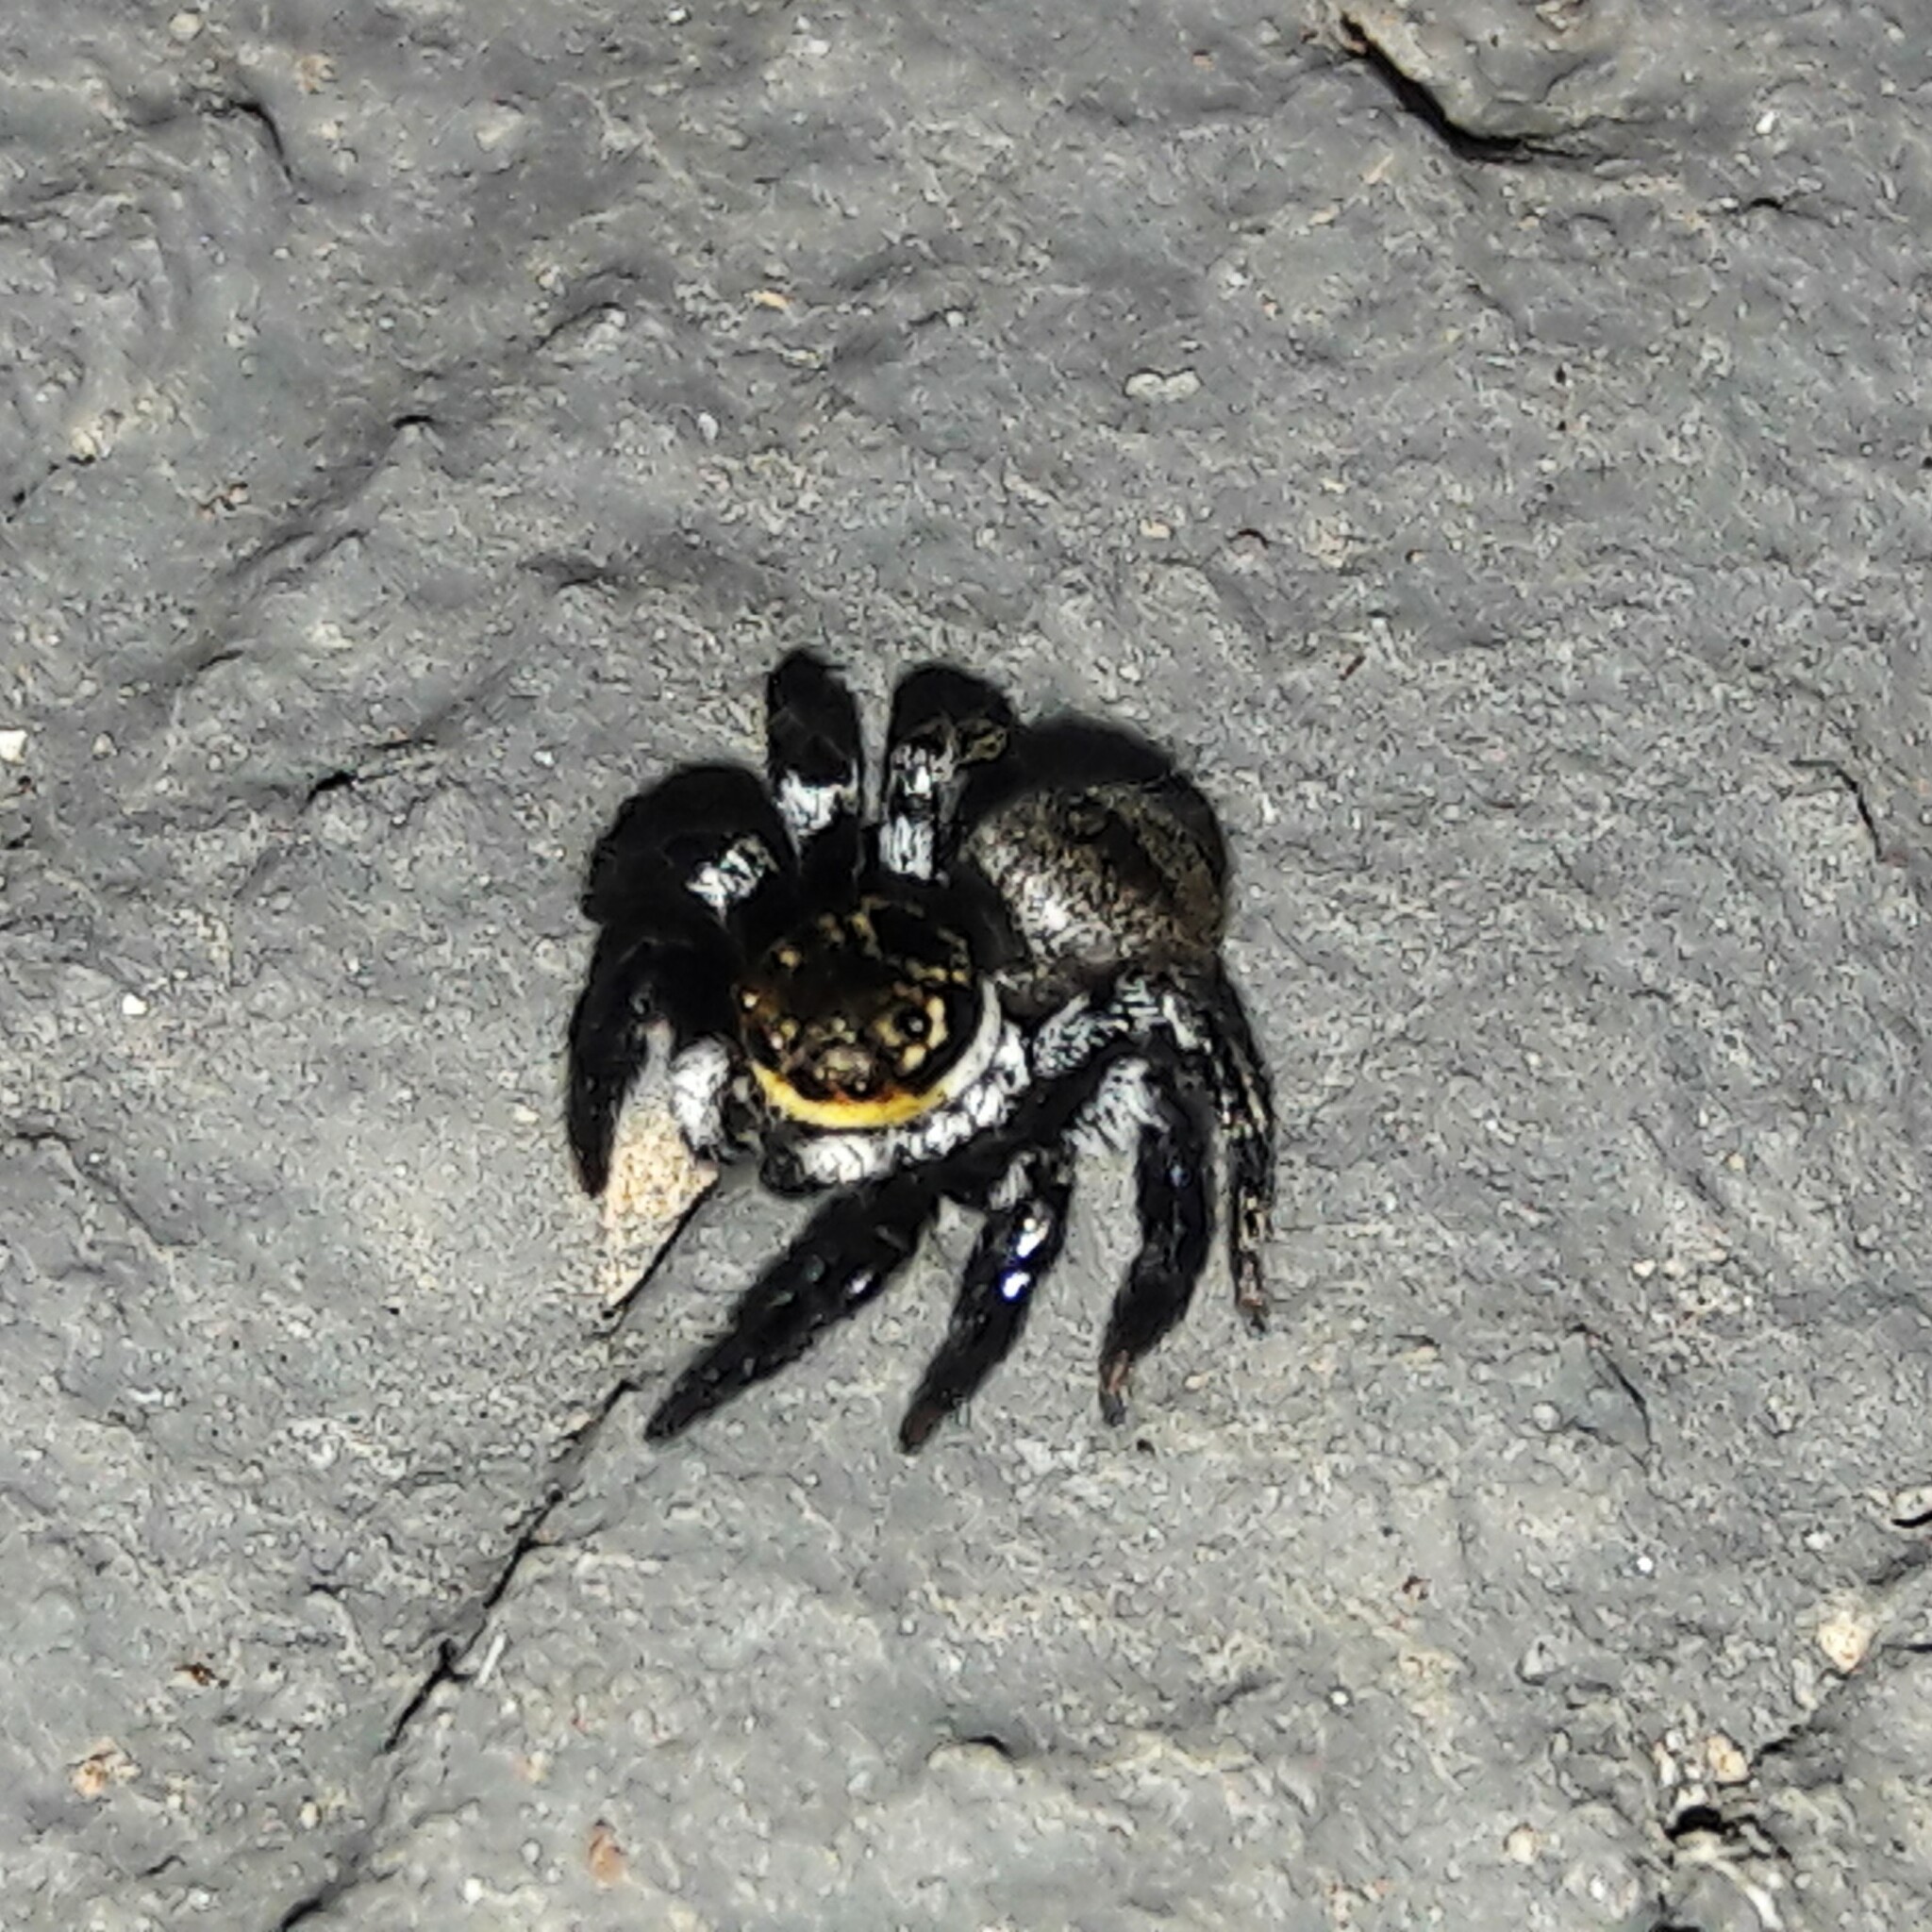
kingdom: Animalia
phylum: Arthropoda
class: Arachnida
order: Araneae
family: Salticidae
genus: Corythalia
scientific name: Corythalia conferta
